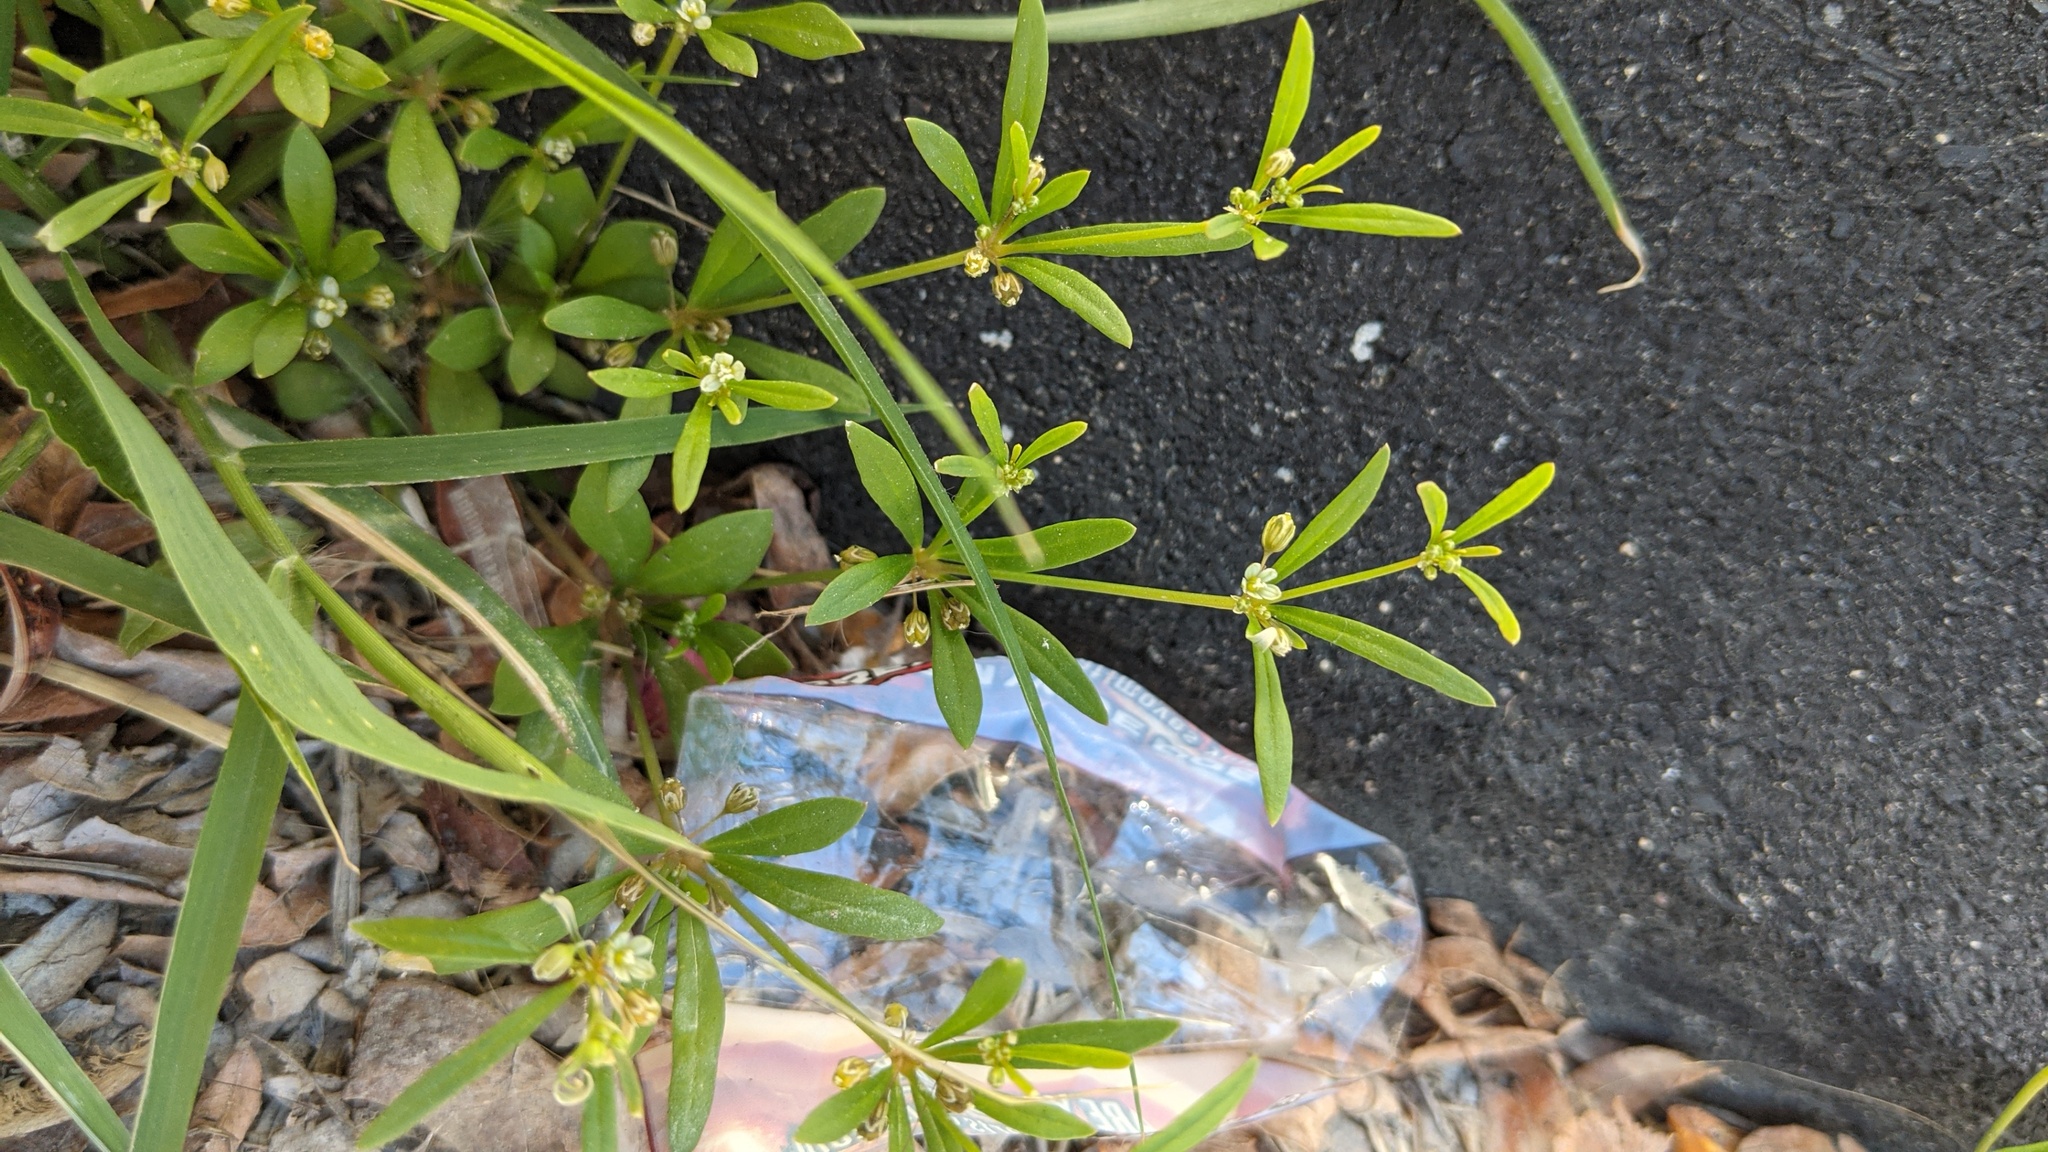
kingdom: Plantae
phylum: Tracheophyta
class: Magnoliopsida
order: Caryophyllales
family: Molluginaceae
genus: Mollugo
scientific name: Mollugo verticillata
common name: Green carpetweed
